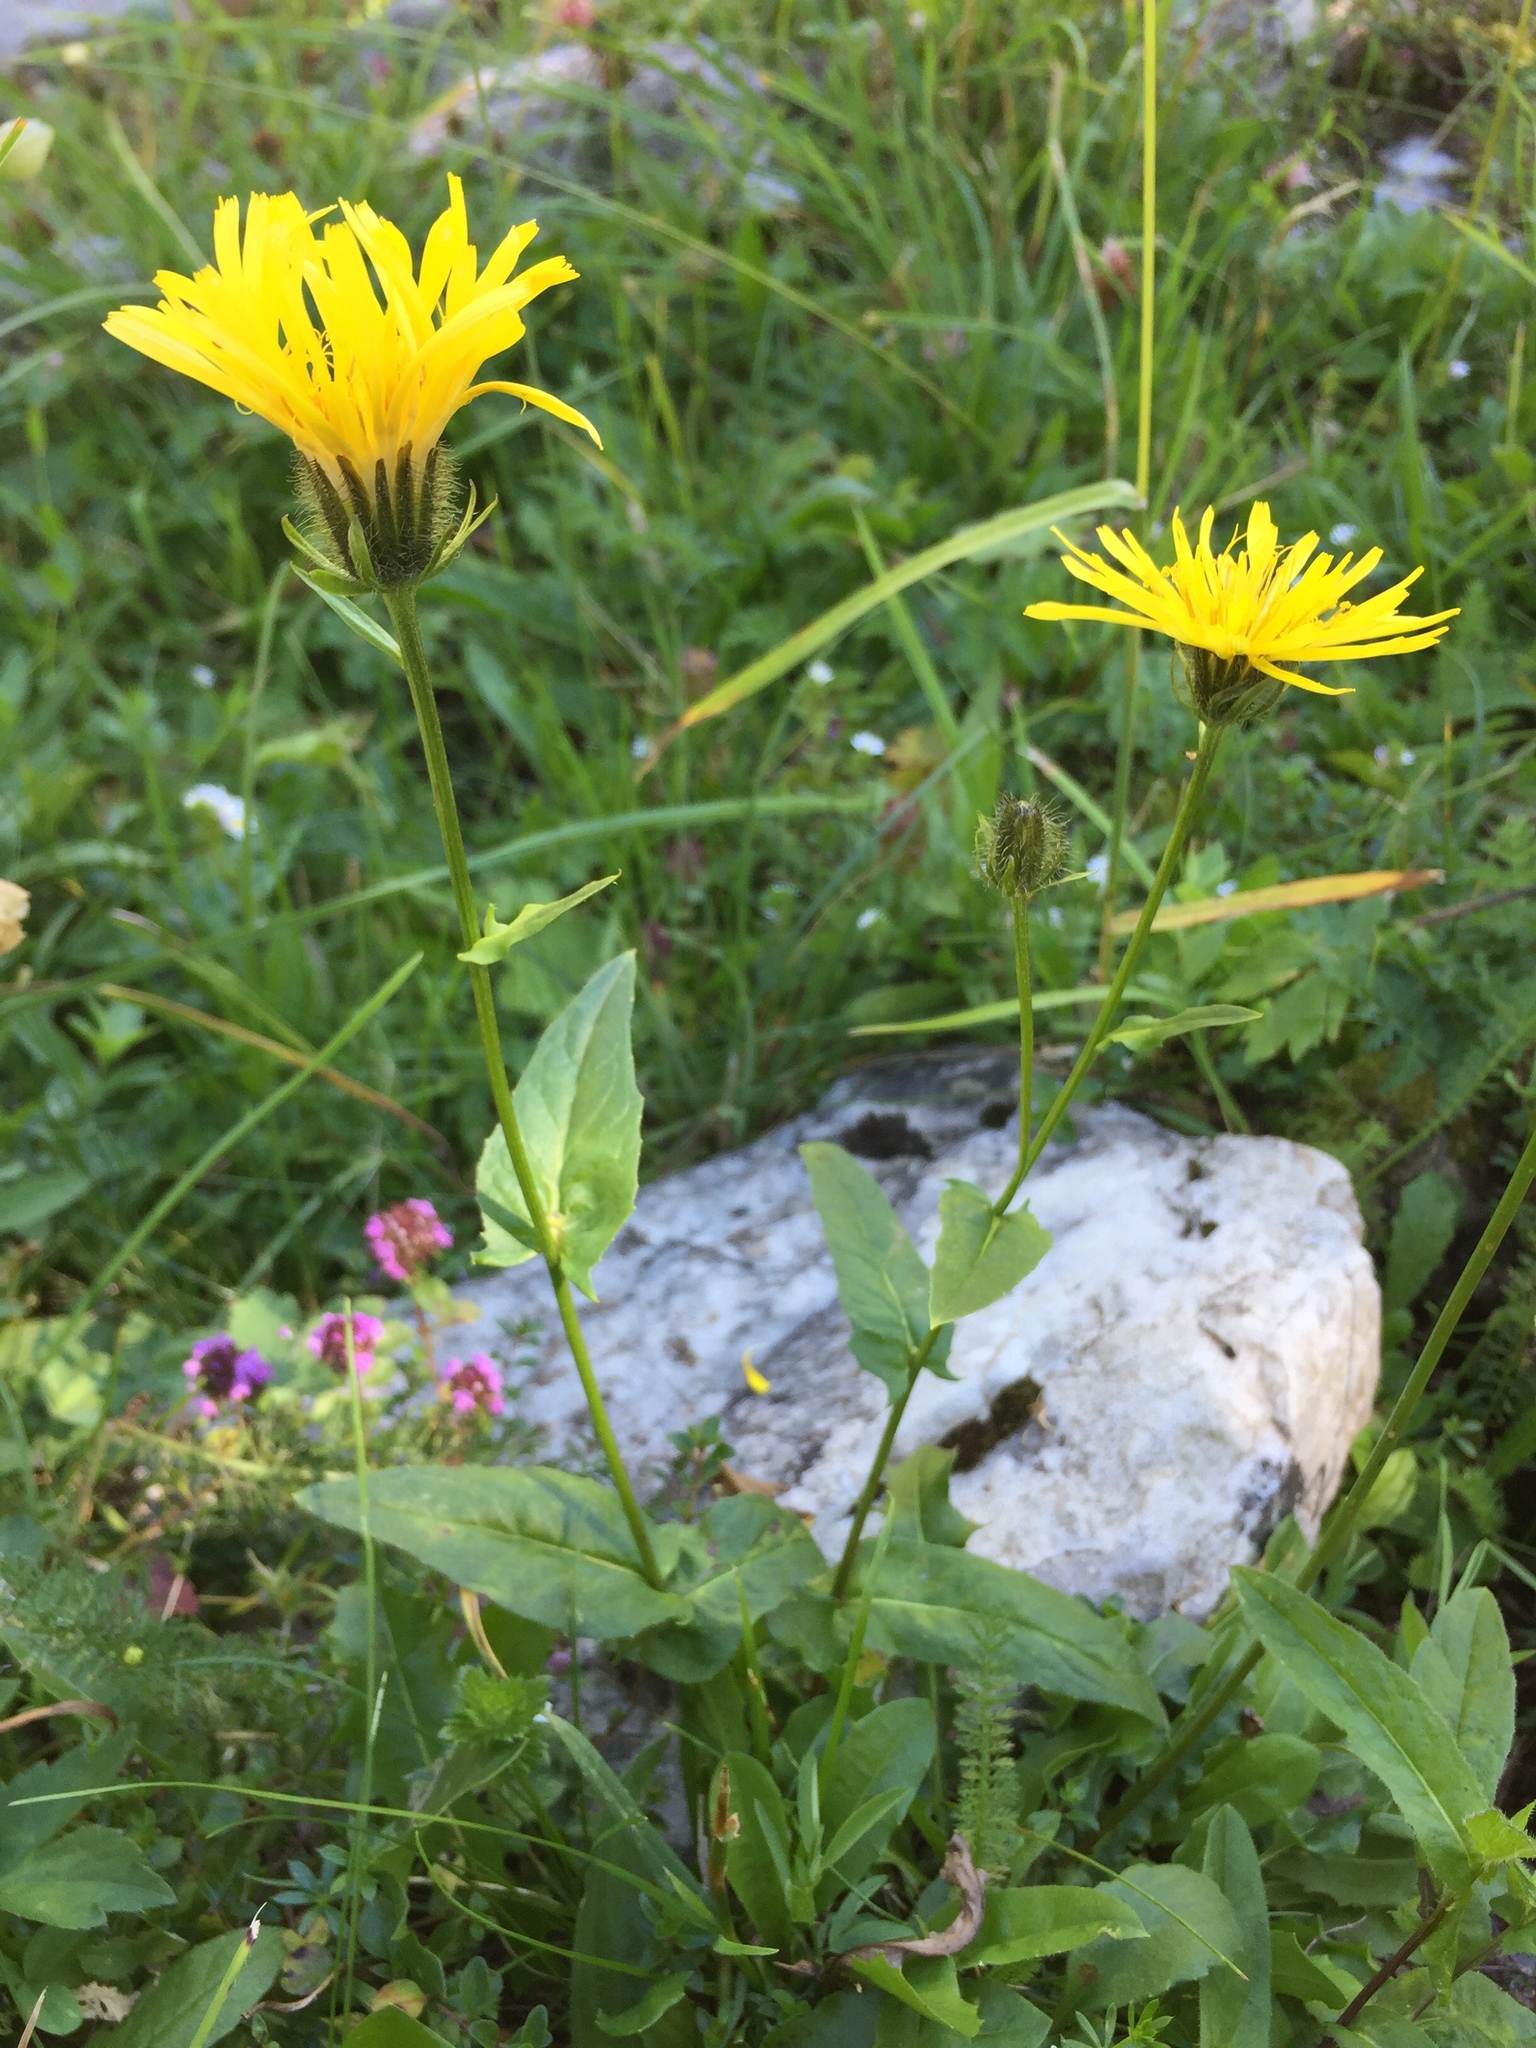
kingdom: Plantae
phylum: Tracheophyta
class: Magnoliopsida
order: Asterales
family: Asteraceae
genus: Crepis
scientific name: Crepis pyrenaica
